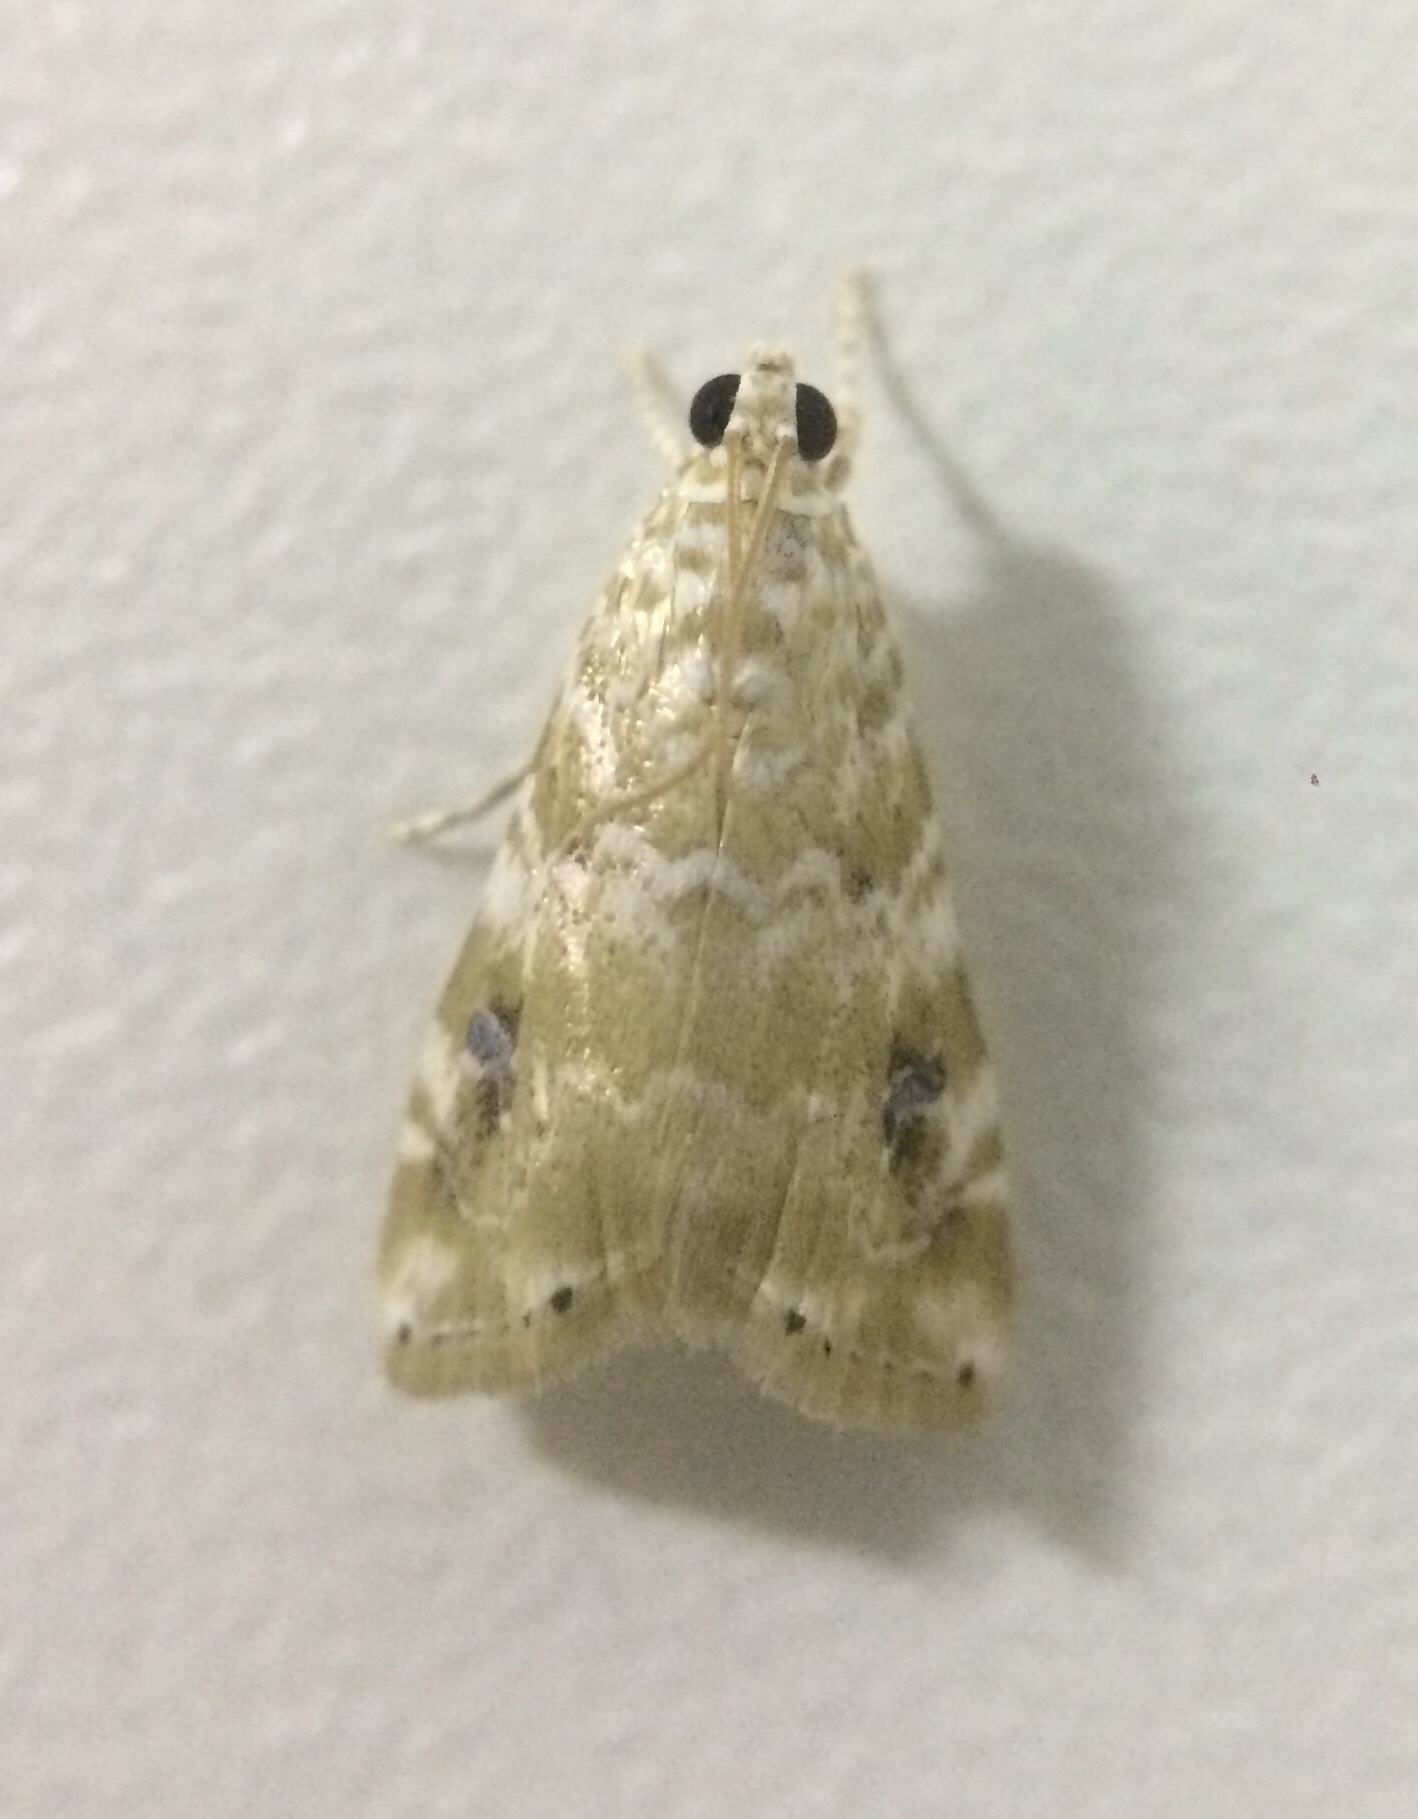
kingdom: Animalia
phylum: Arthropoda
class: Insecta
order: Lepidoptera
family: Crambidae
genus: Hellula
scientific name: Hellula phidilealis
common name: Crambid moth
